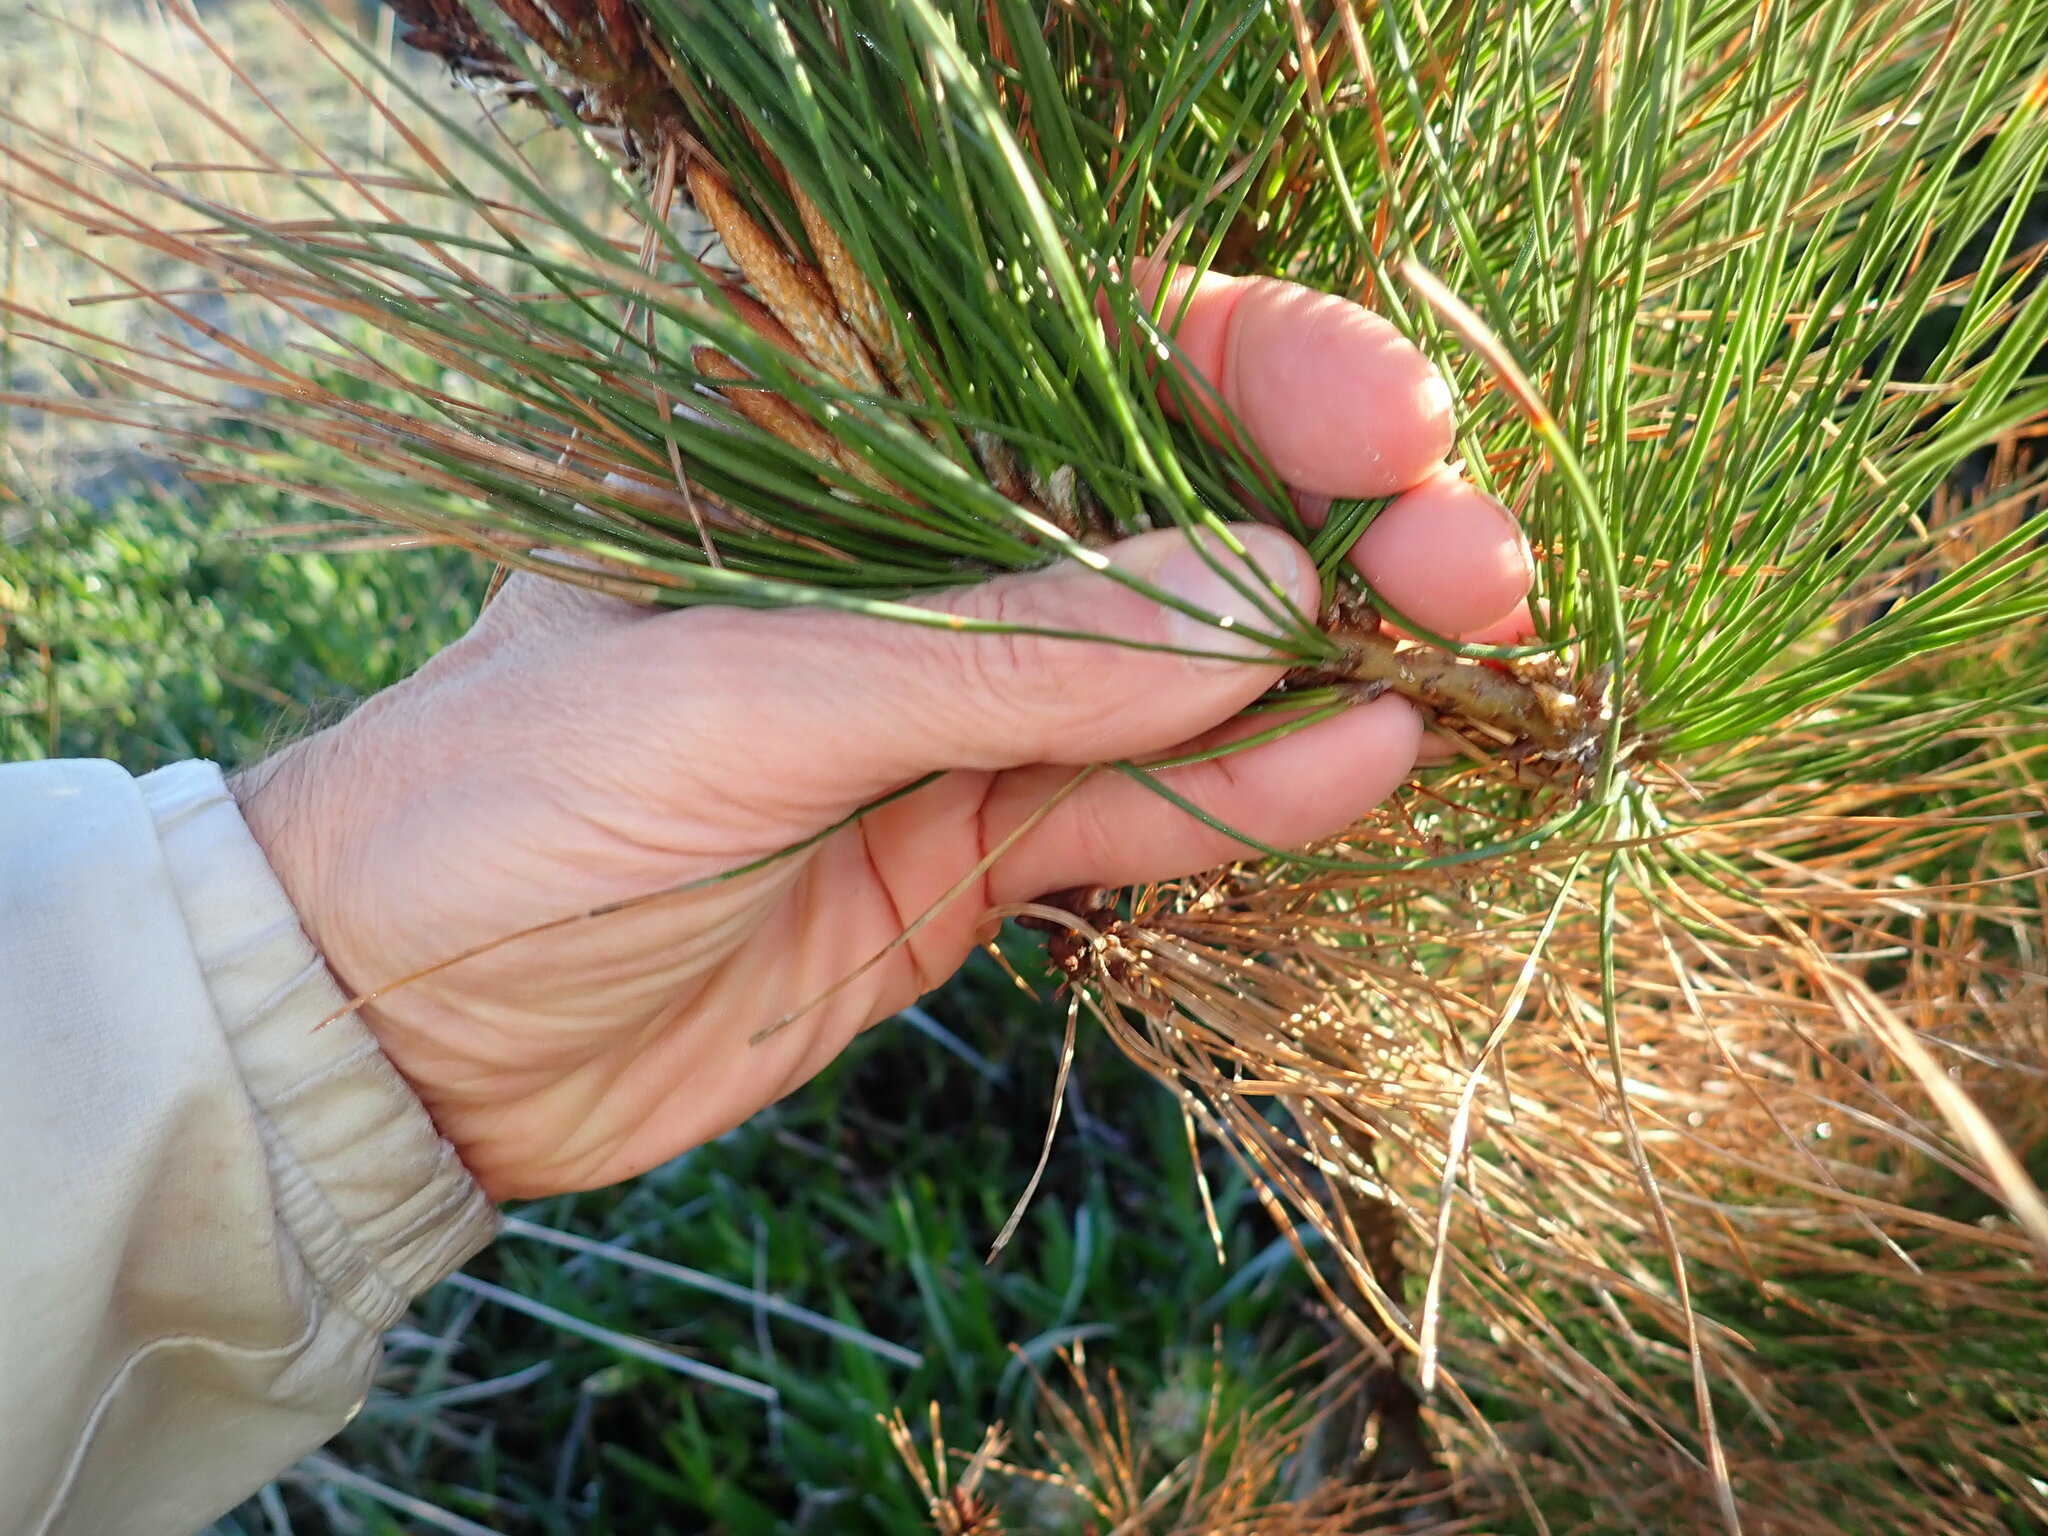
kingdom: Plantae
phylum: Tracheophyta
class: Pinopsida
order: Pinales
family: Pinaceae
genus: Pinus
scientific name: Pinus radiata
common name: Monterey pine
